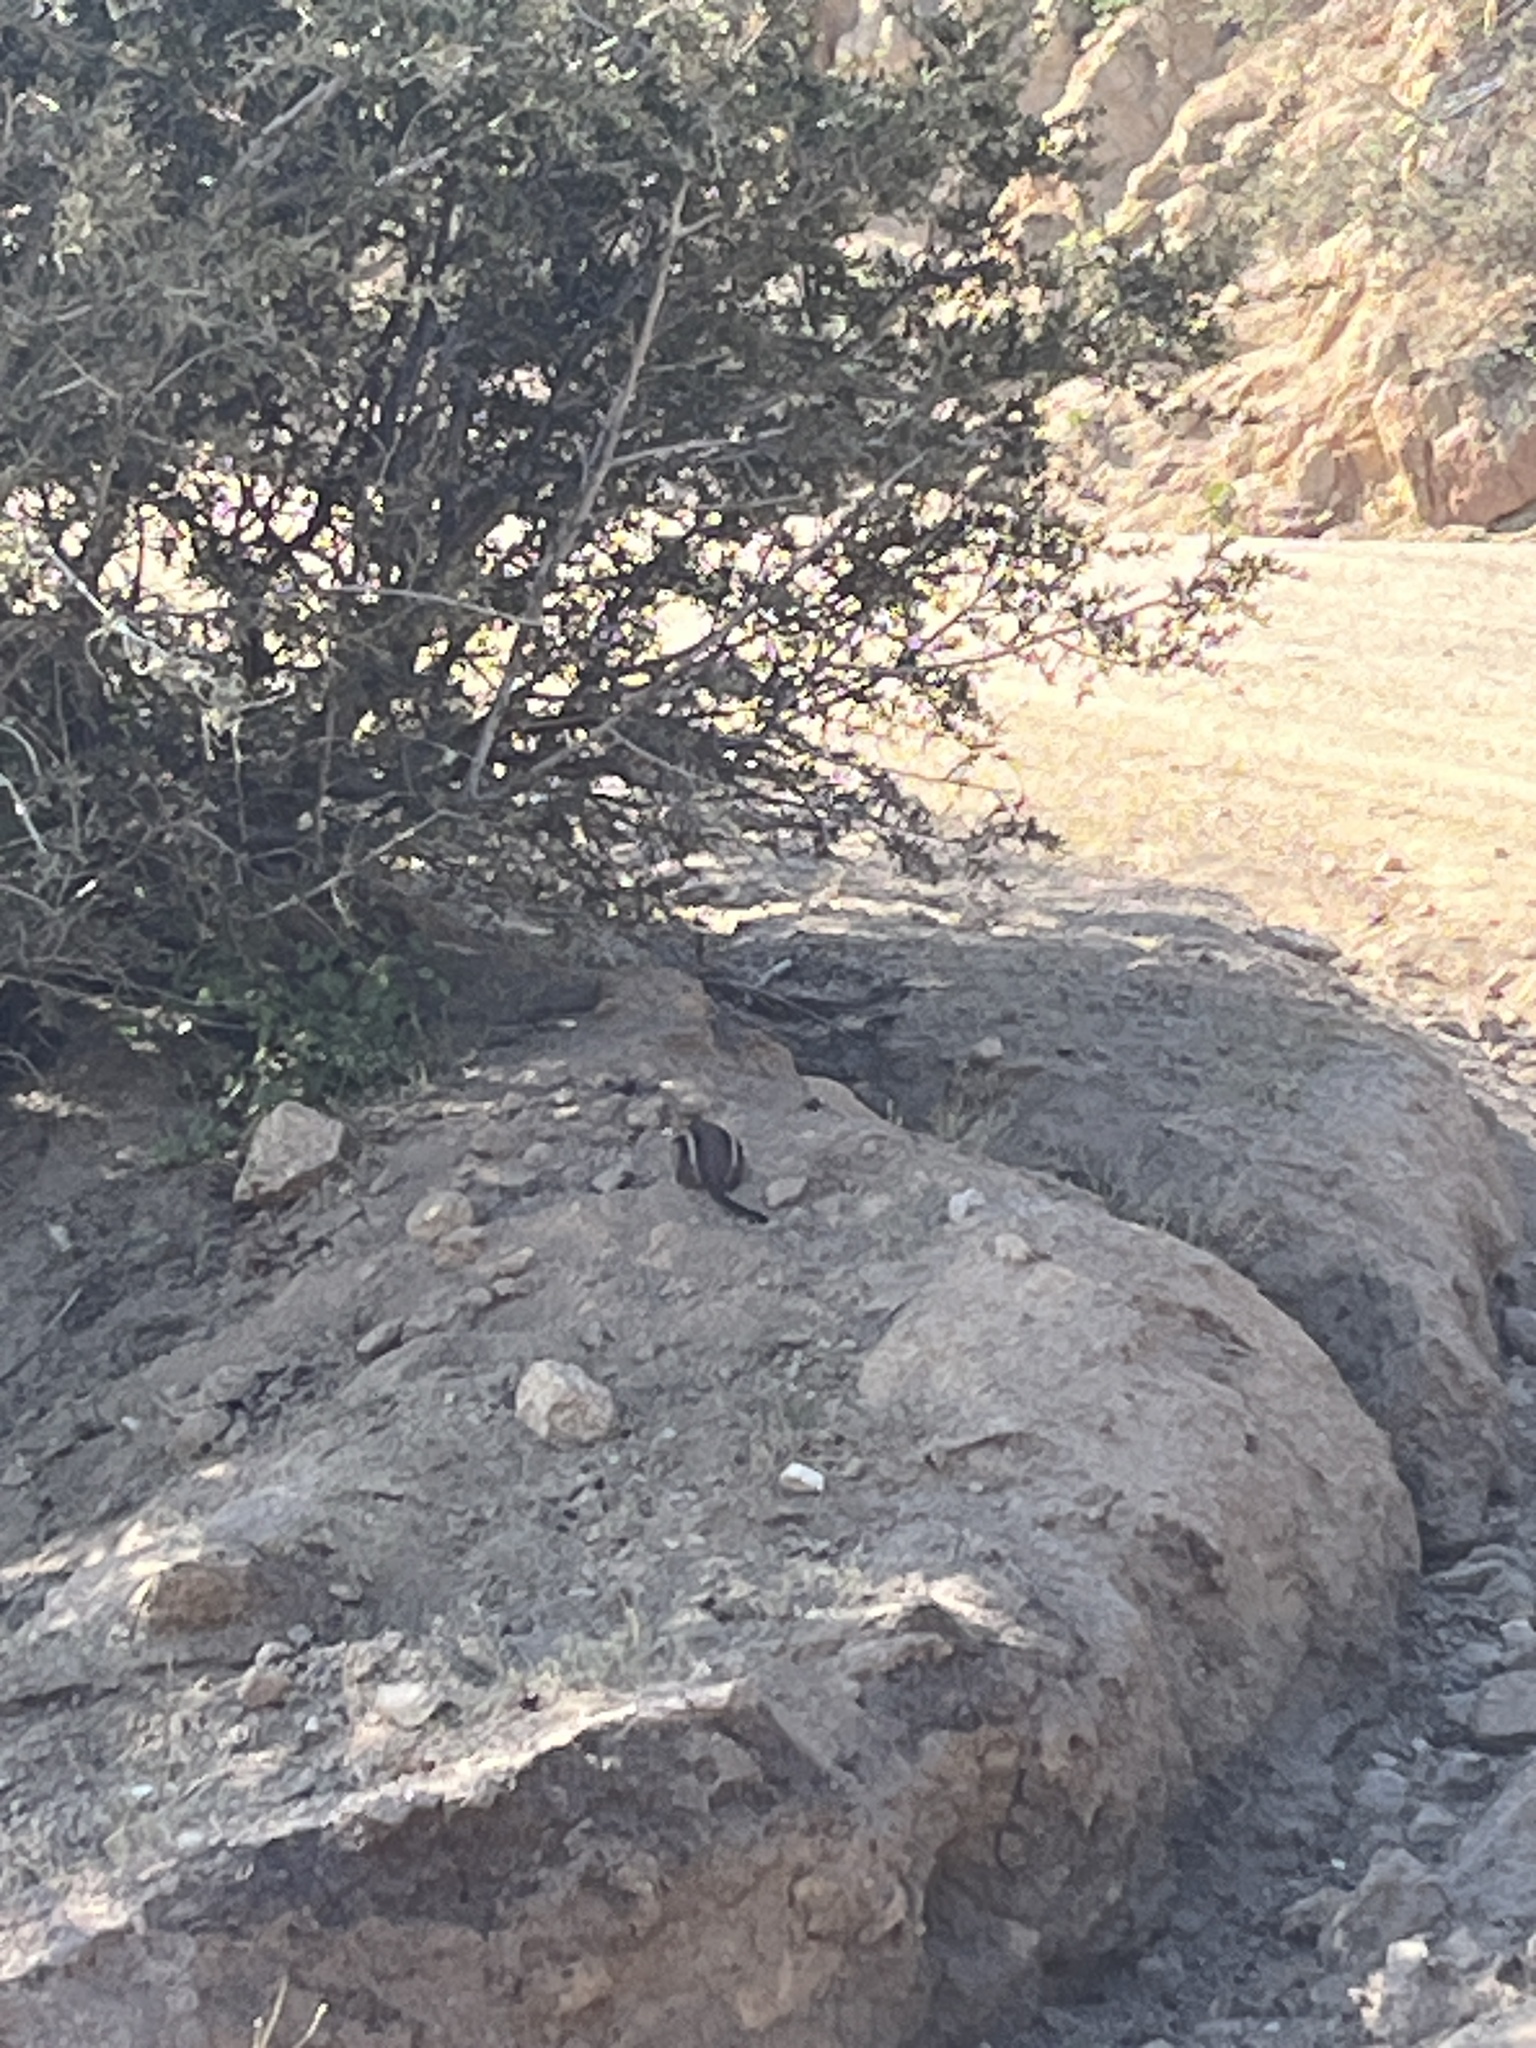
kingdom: Animalia
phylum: Chordata
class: Mammalia
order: Rodentia
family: Sciuridae
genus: Callospermophilus
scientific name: Callospermophilus lateralis
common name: Golden-mantled ground squirrel
